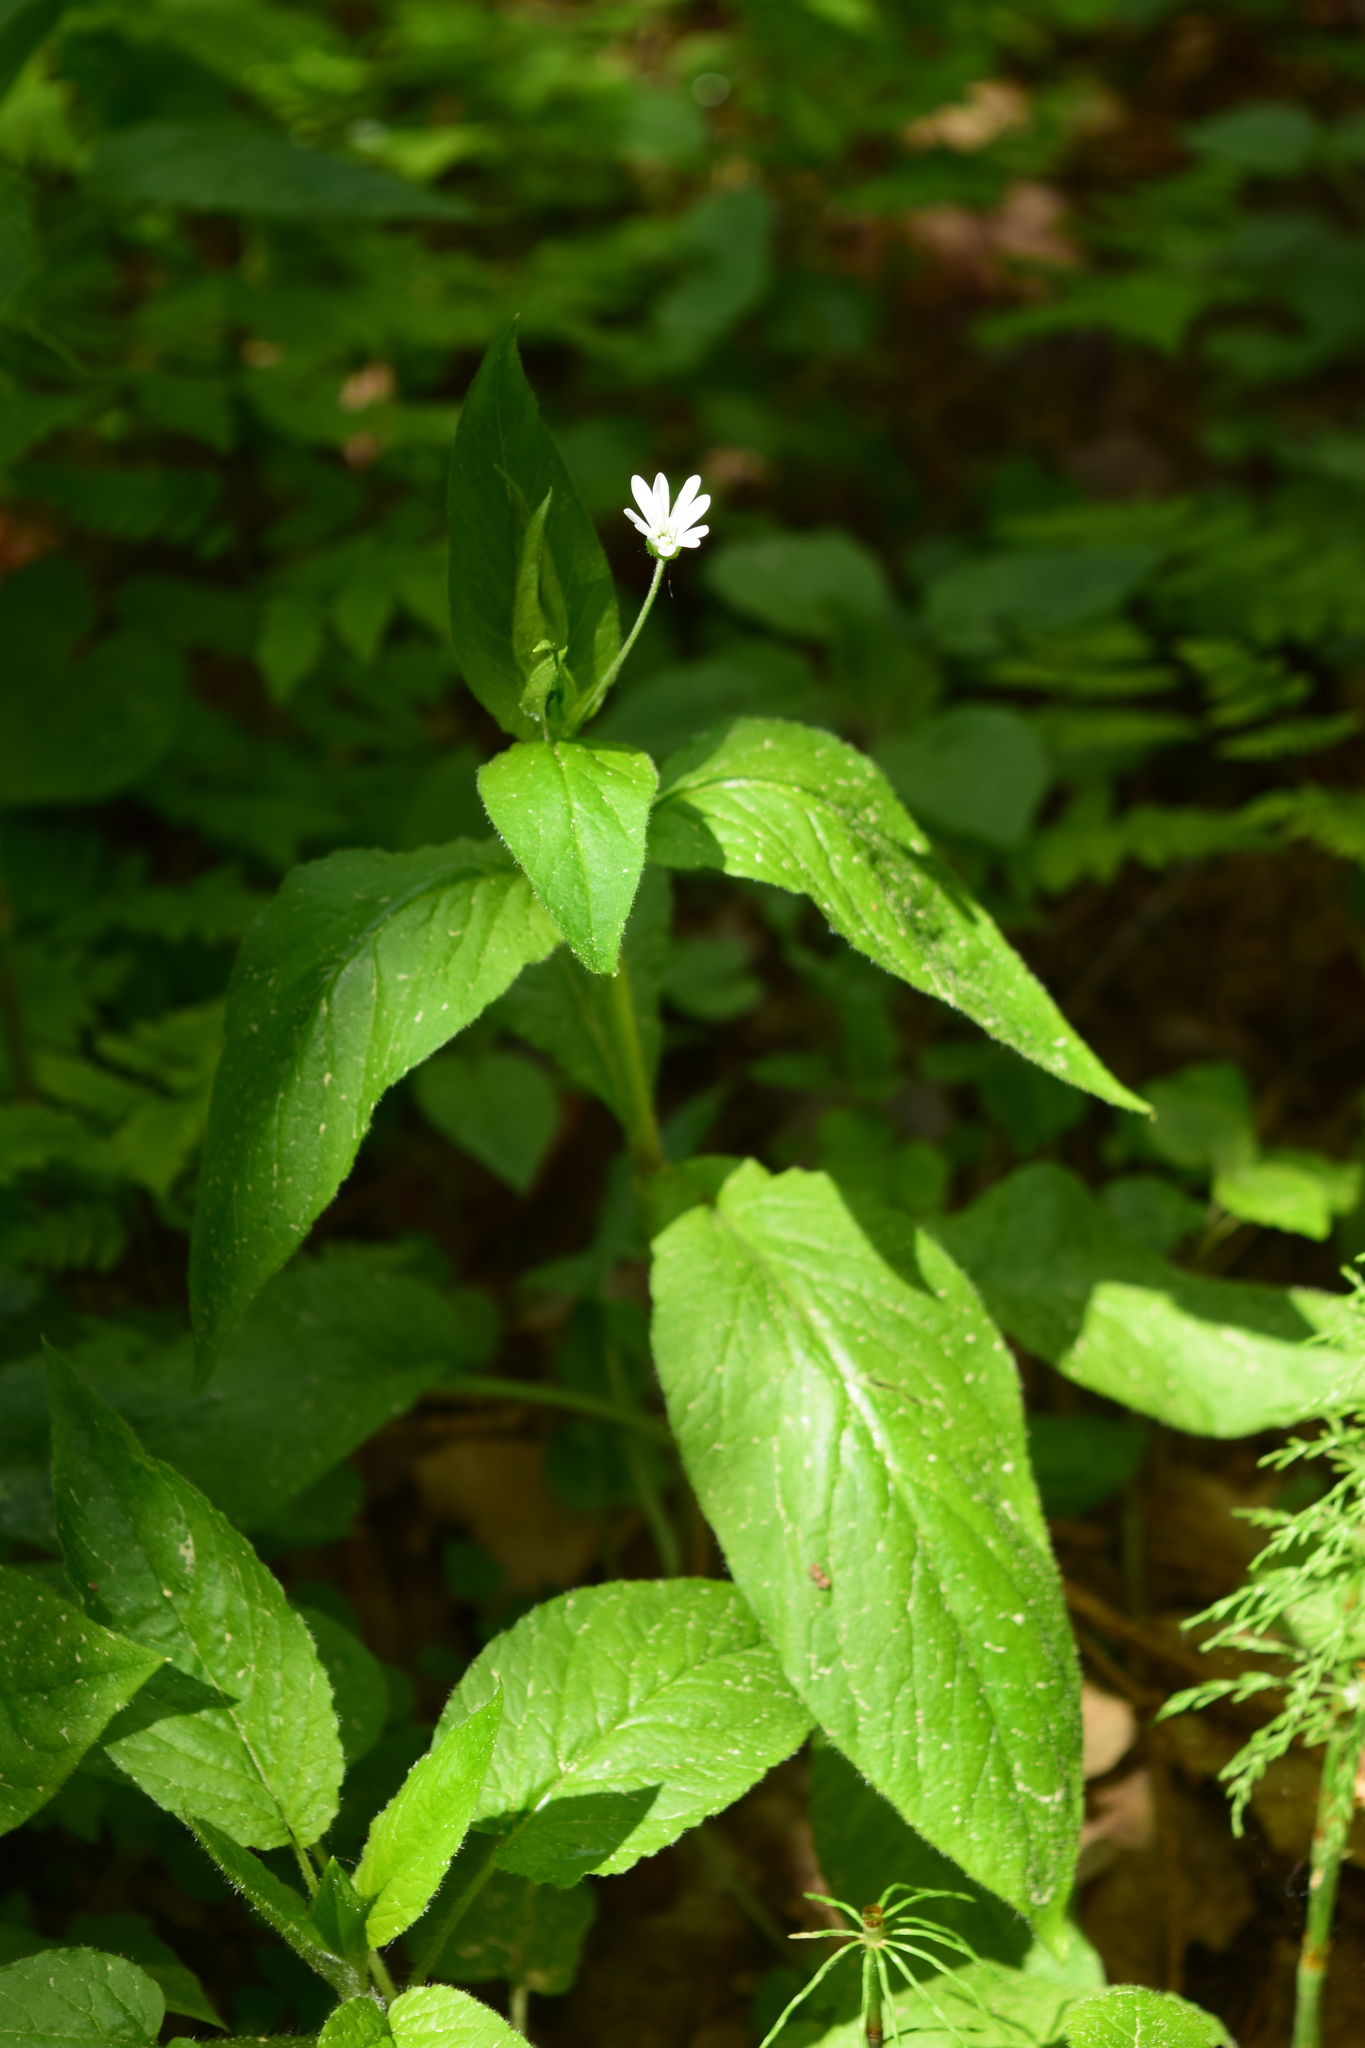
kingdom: Plantae
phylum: Tracheophyta
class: Magnoliopsida
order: Caryophyllales
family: Caryophyllaceae
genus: Stellaria
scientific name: Stellaria nemorum
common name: Wood stitchwort
